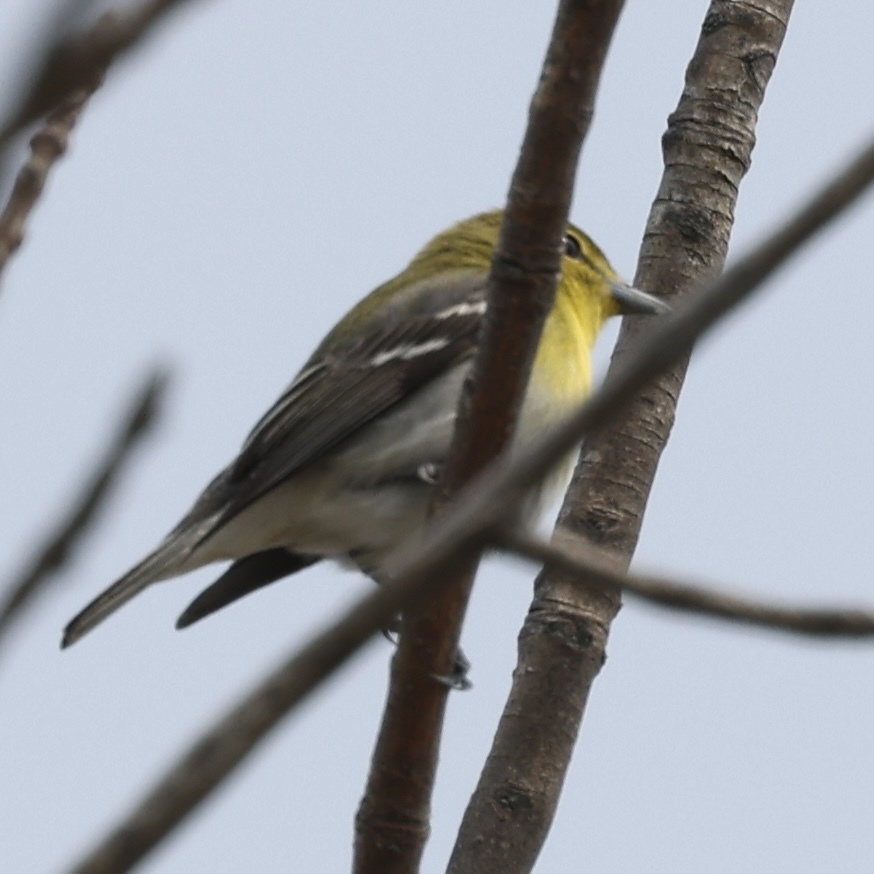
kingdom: Animalia
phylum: Chordata
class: Aves
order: Passeriformes
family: Vireonidae
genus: Vireo
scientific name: Vireo flavifrons
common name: Yellow-throated vireo
